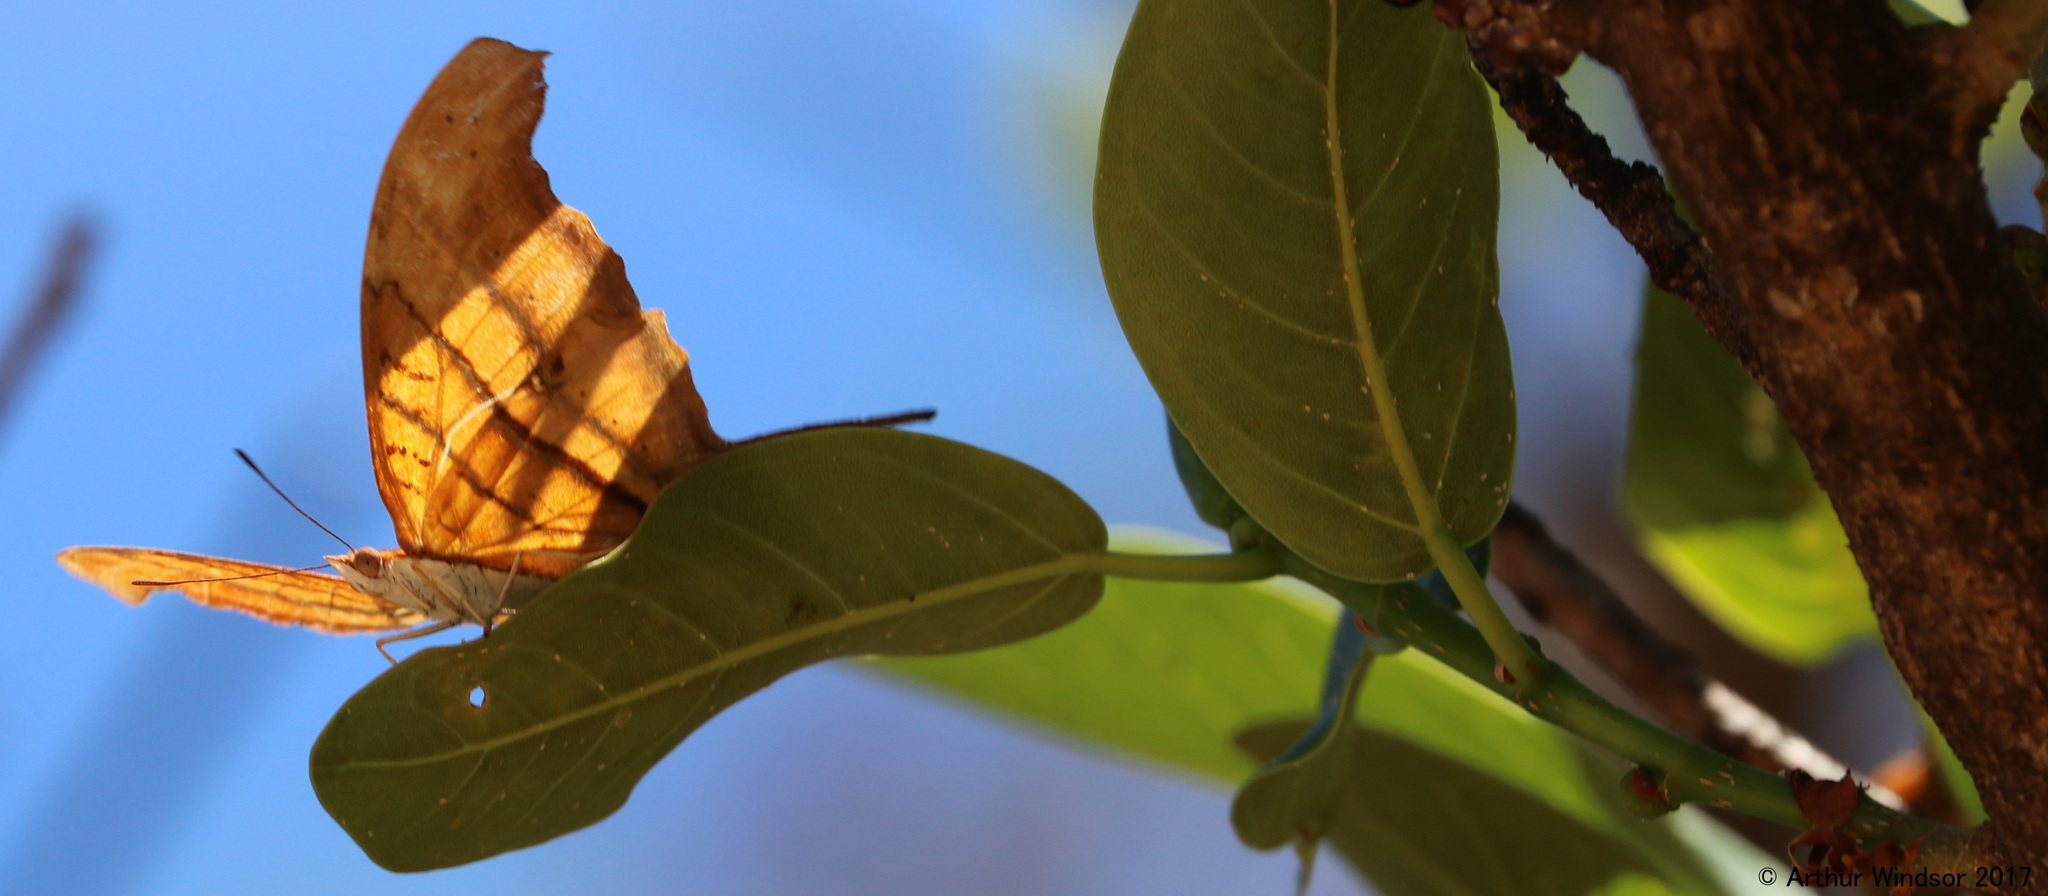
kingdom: Animalia
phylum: Arthropoda
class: Insecta
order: Lepidoptera
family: Nymphalidae
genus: Marpesia
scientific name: Marpesia petreus
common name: Red dagger wing
